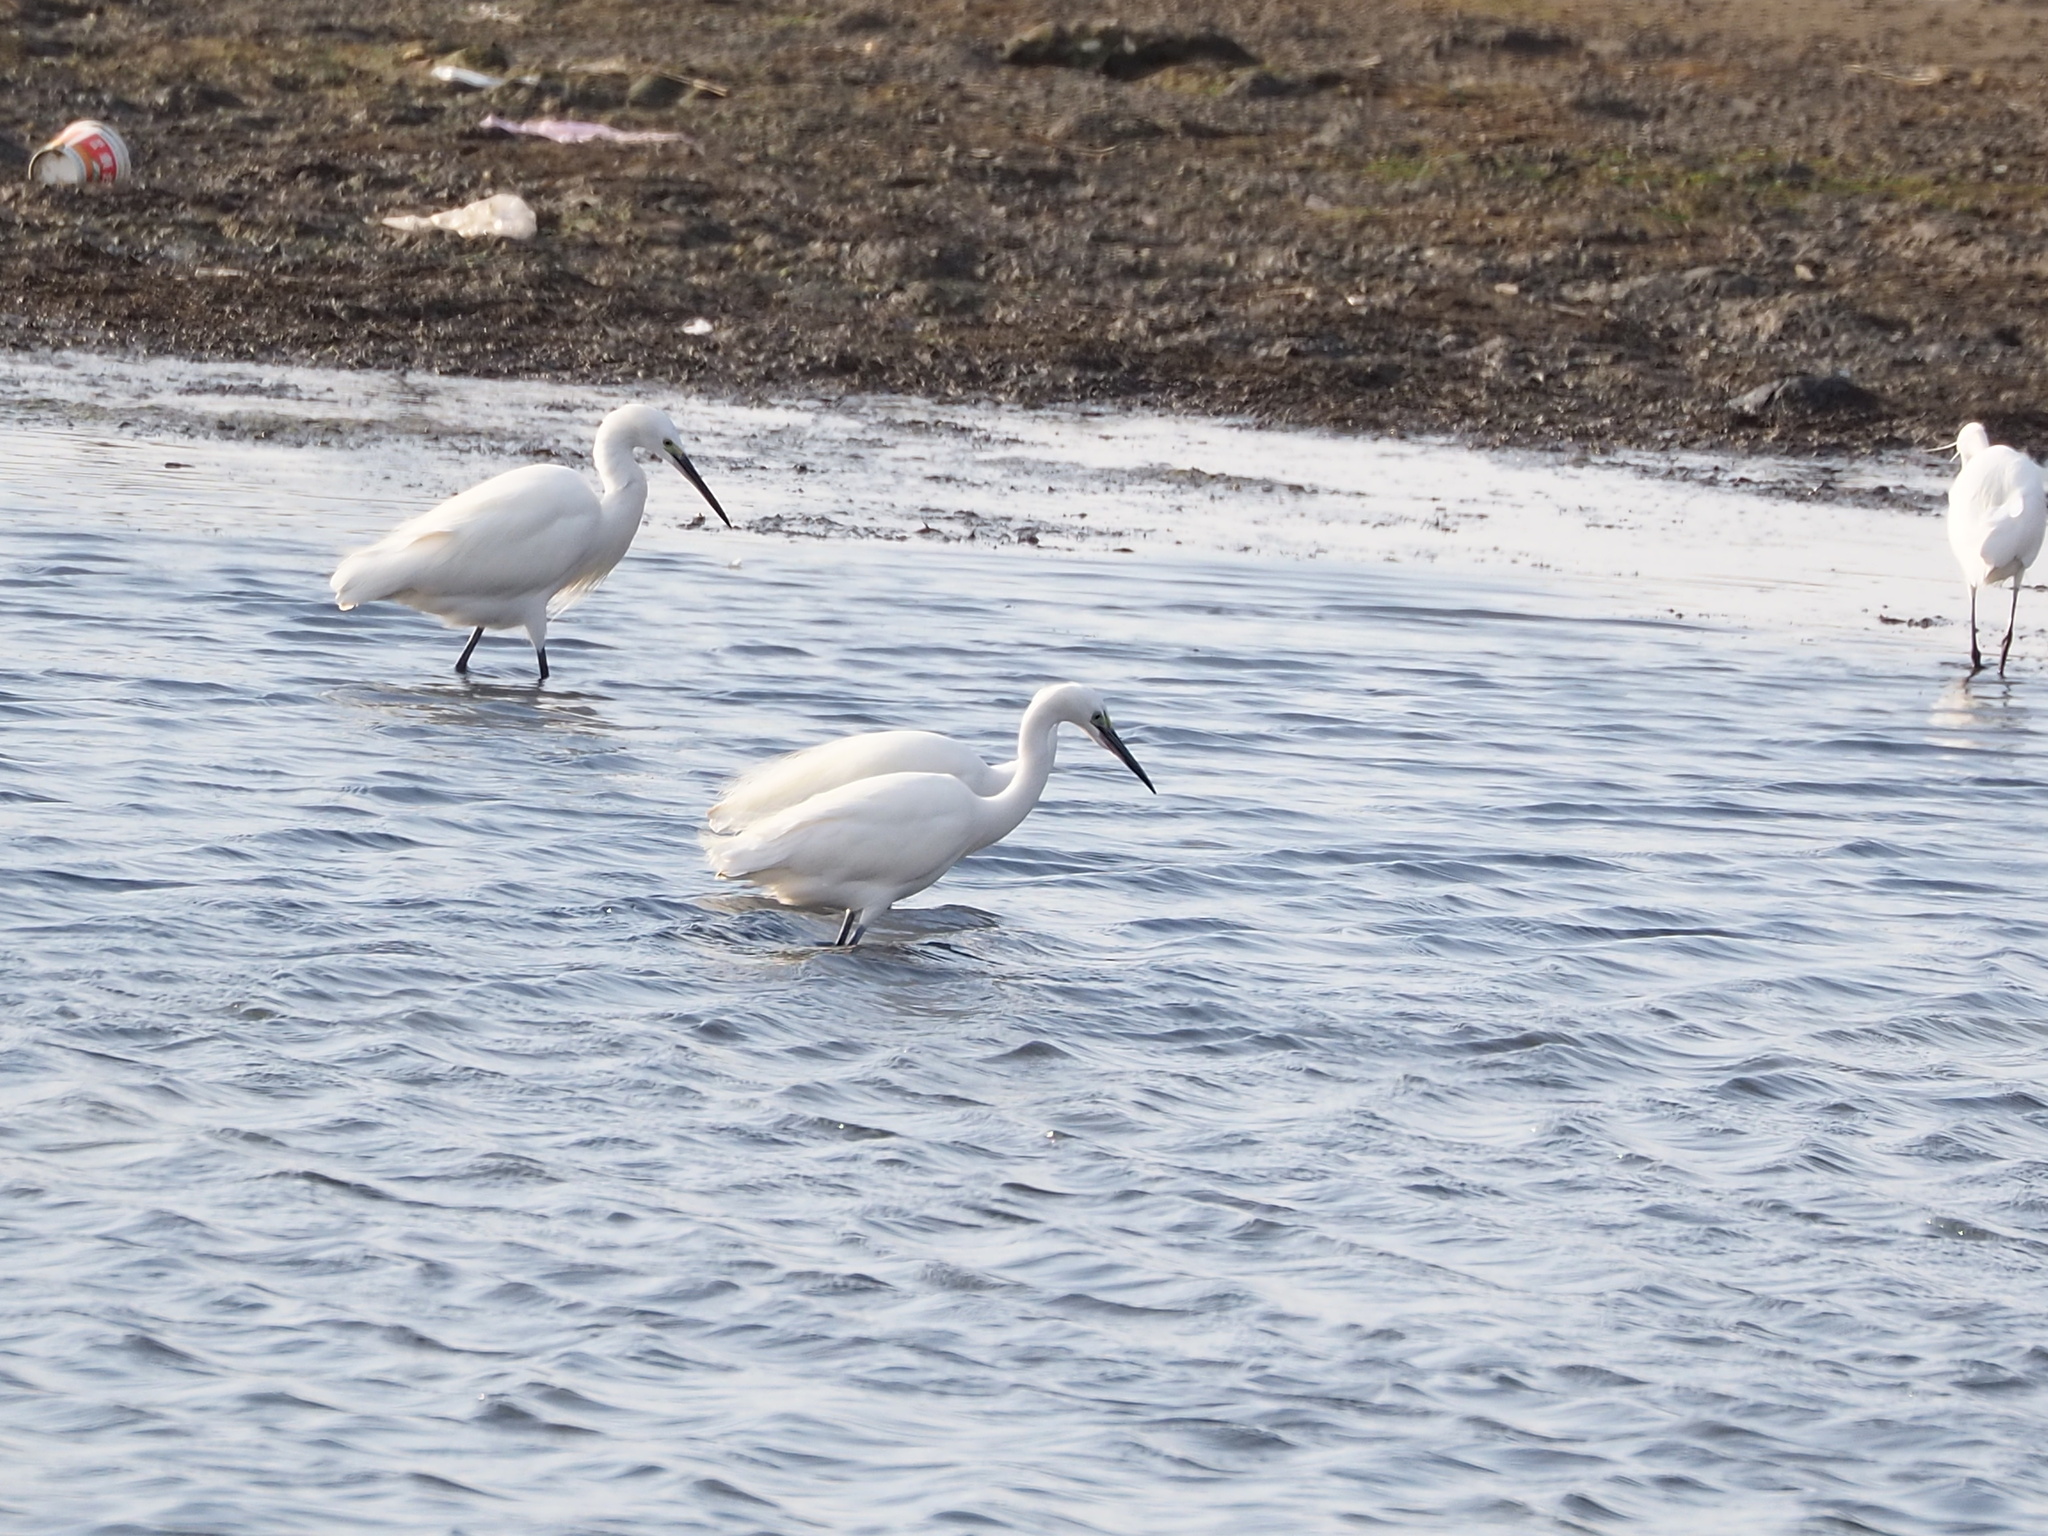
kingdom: Animalia
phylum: Chordata
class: Aves
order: Pelecaniformes
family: Ardeidae
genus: Egretta
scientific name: Egretta garzetta
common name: Little egret
